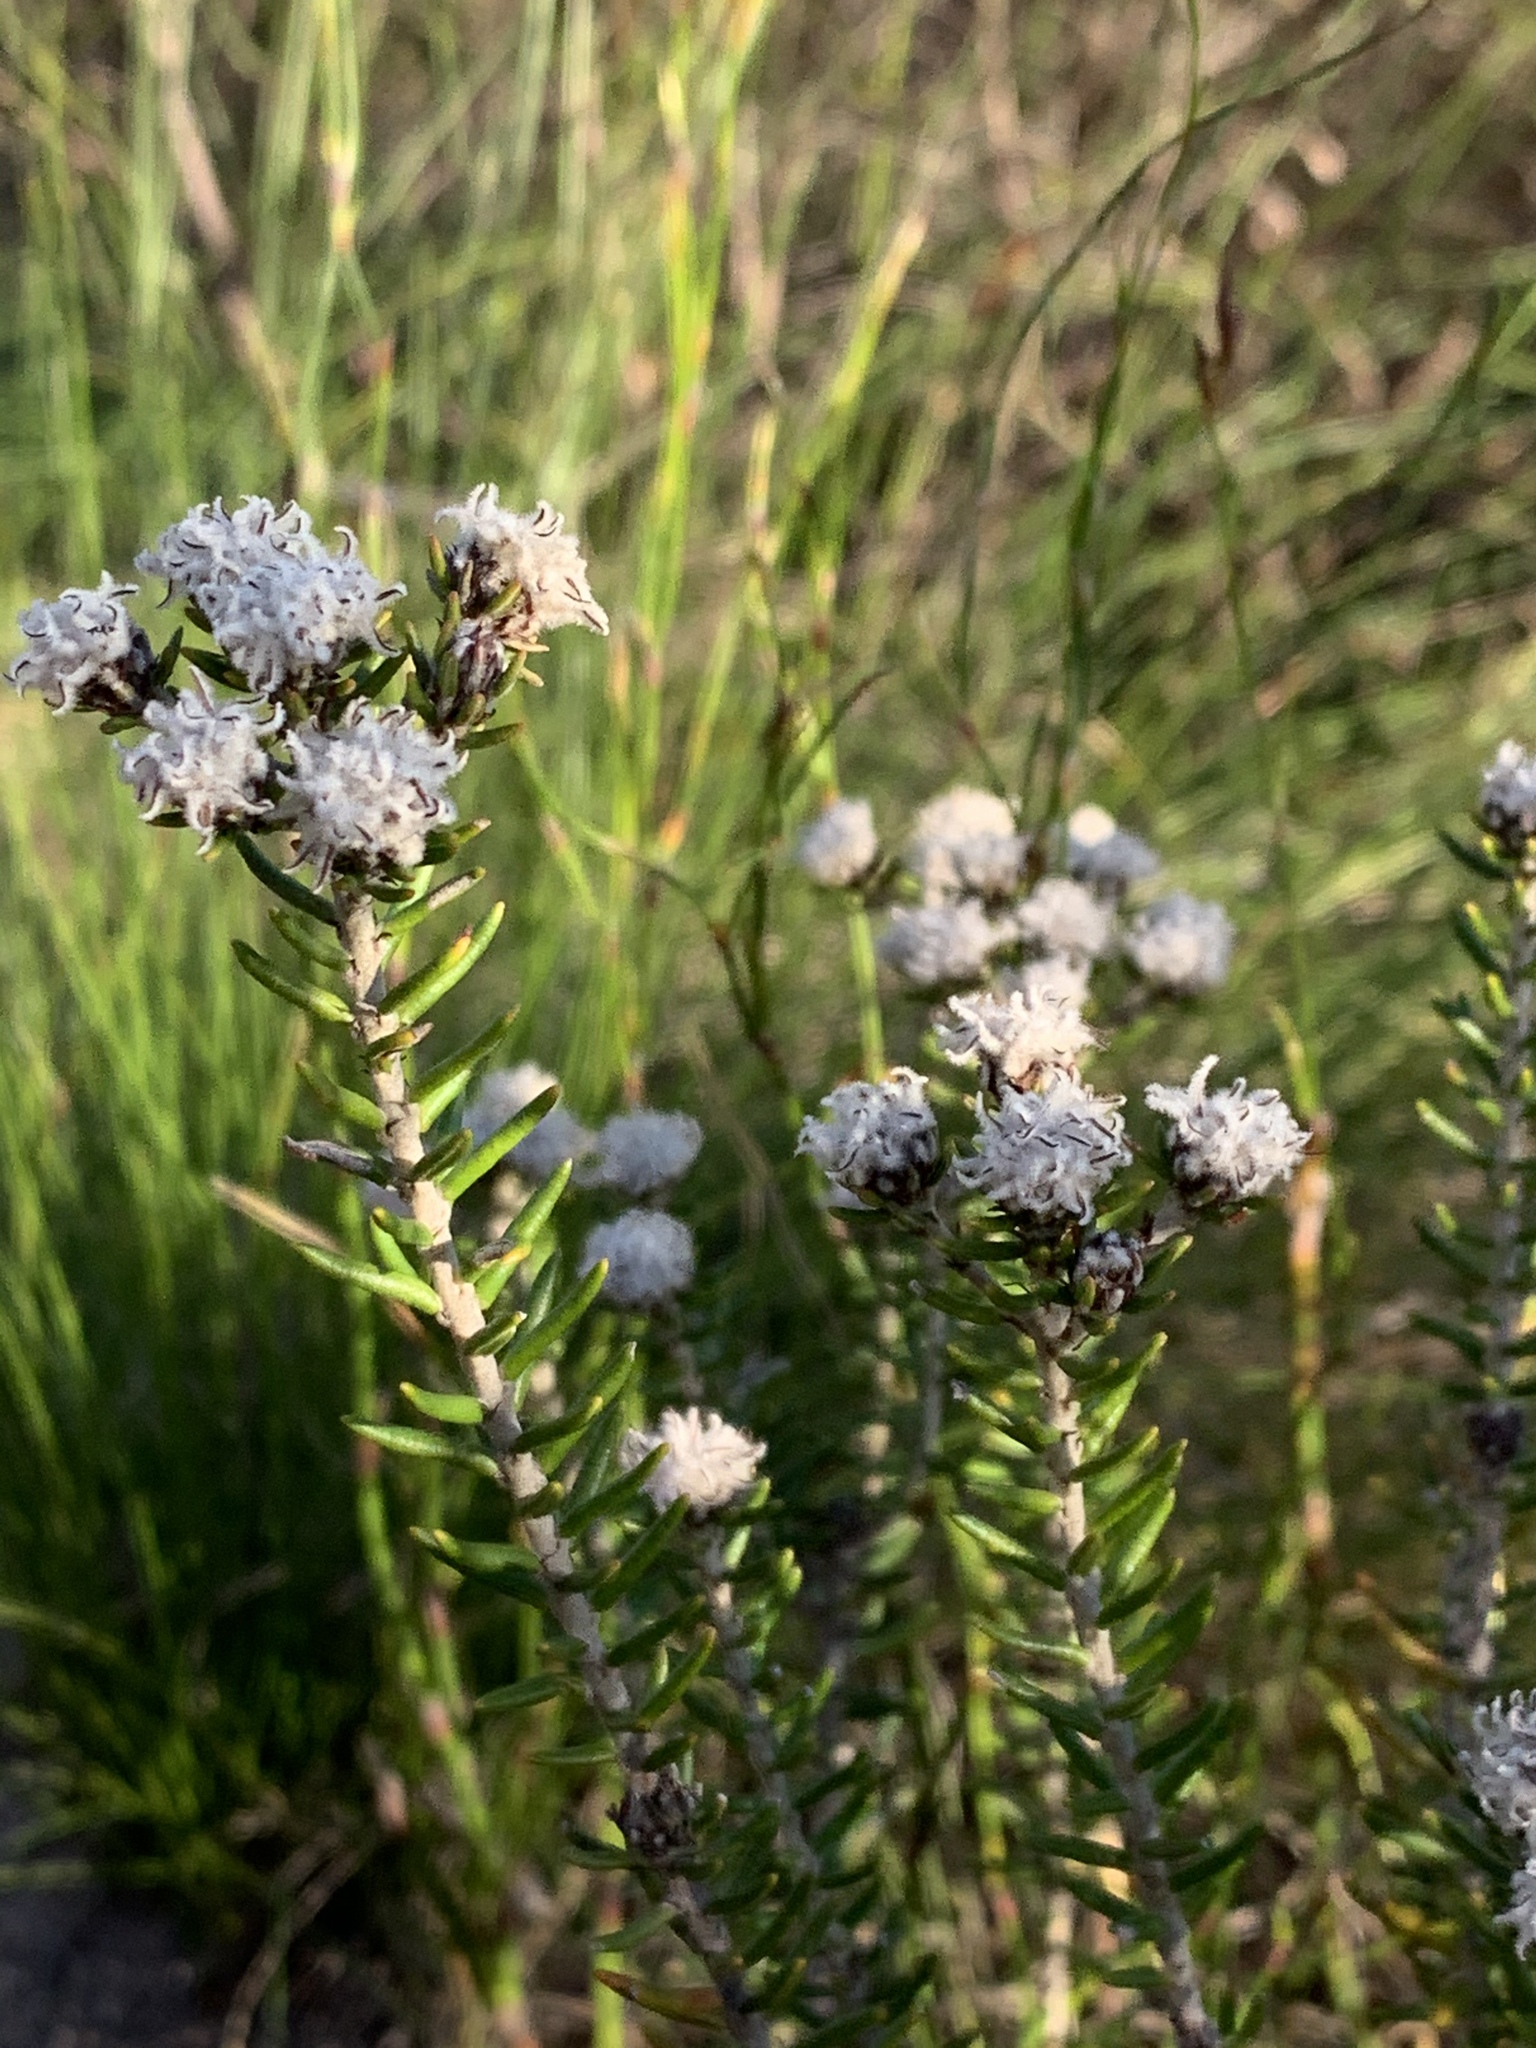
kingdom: Plantae
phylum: Tracheophyta
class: Magnoliopsida
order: Rosales
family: Rhamnaceae
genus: Trichocephalus
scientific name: Trichocephalus stipularis
